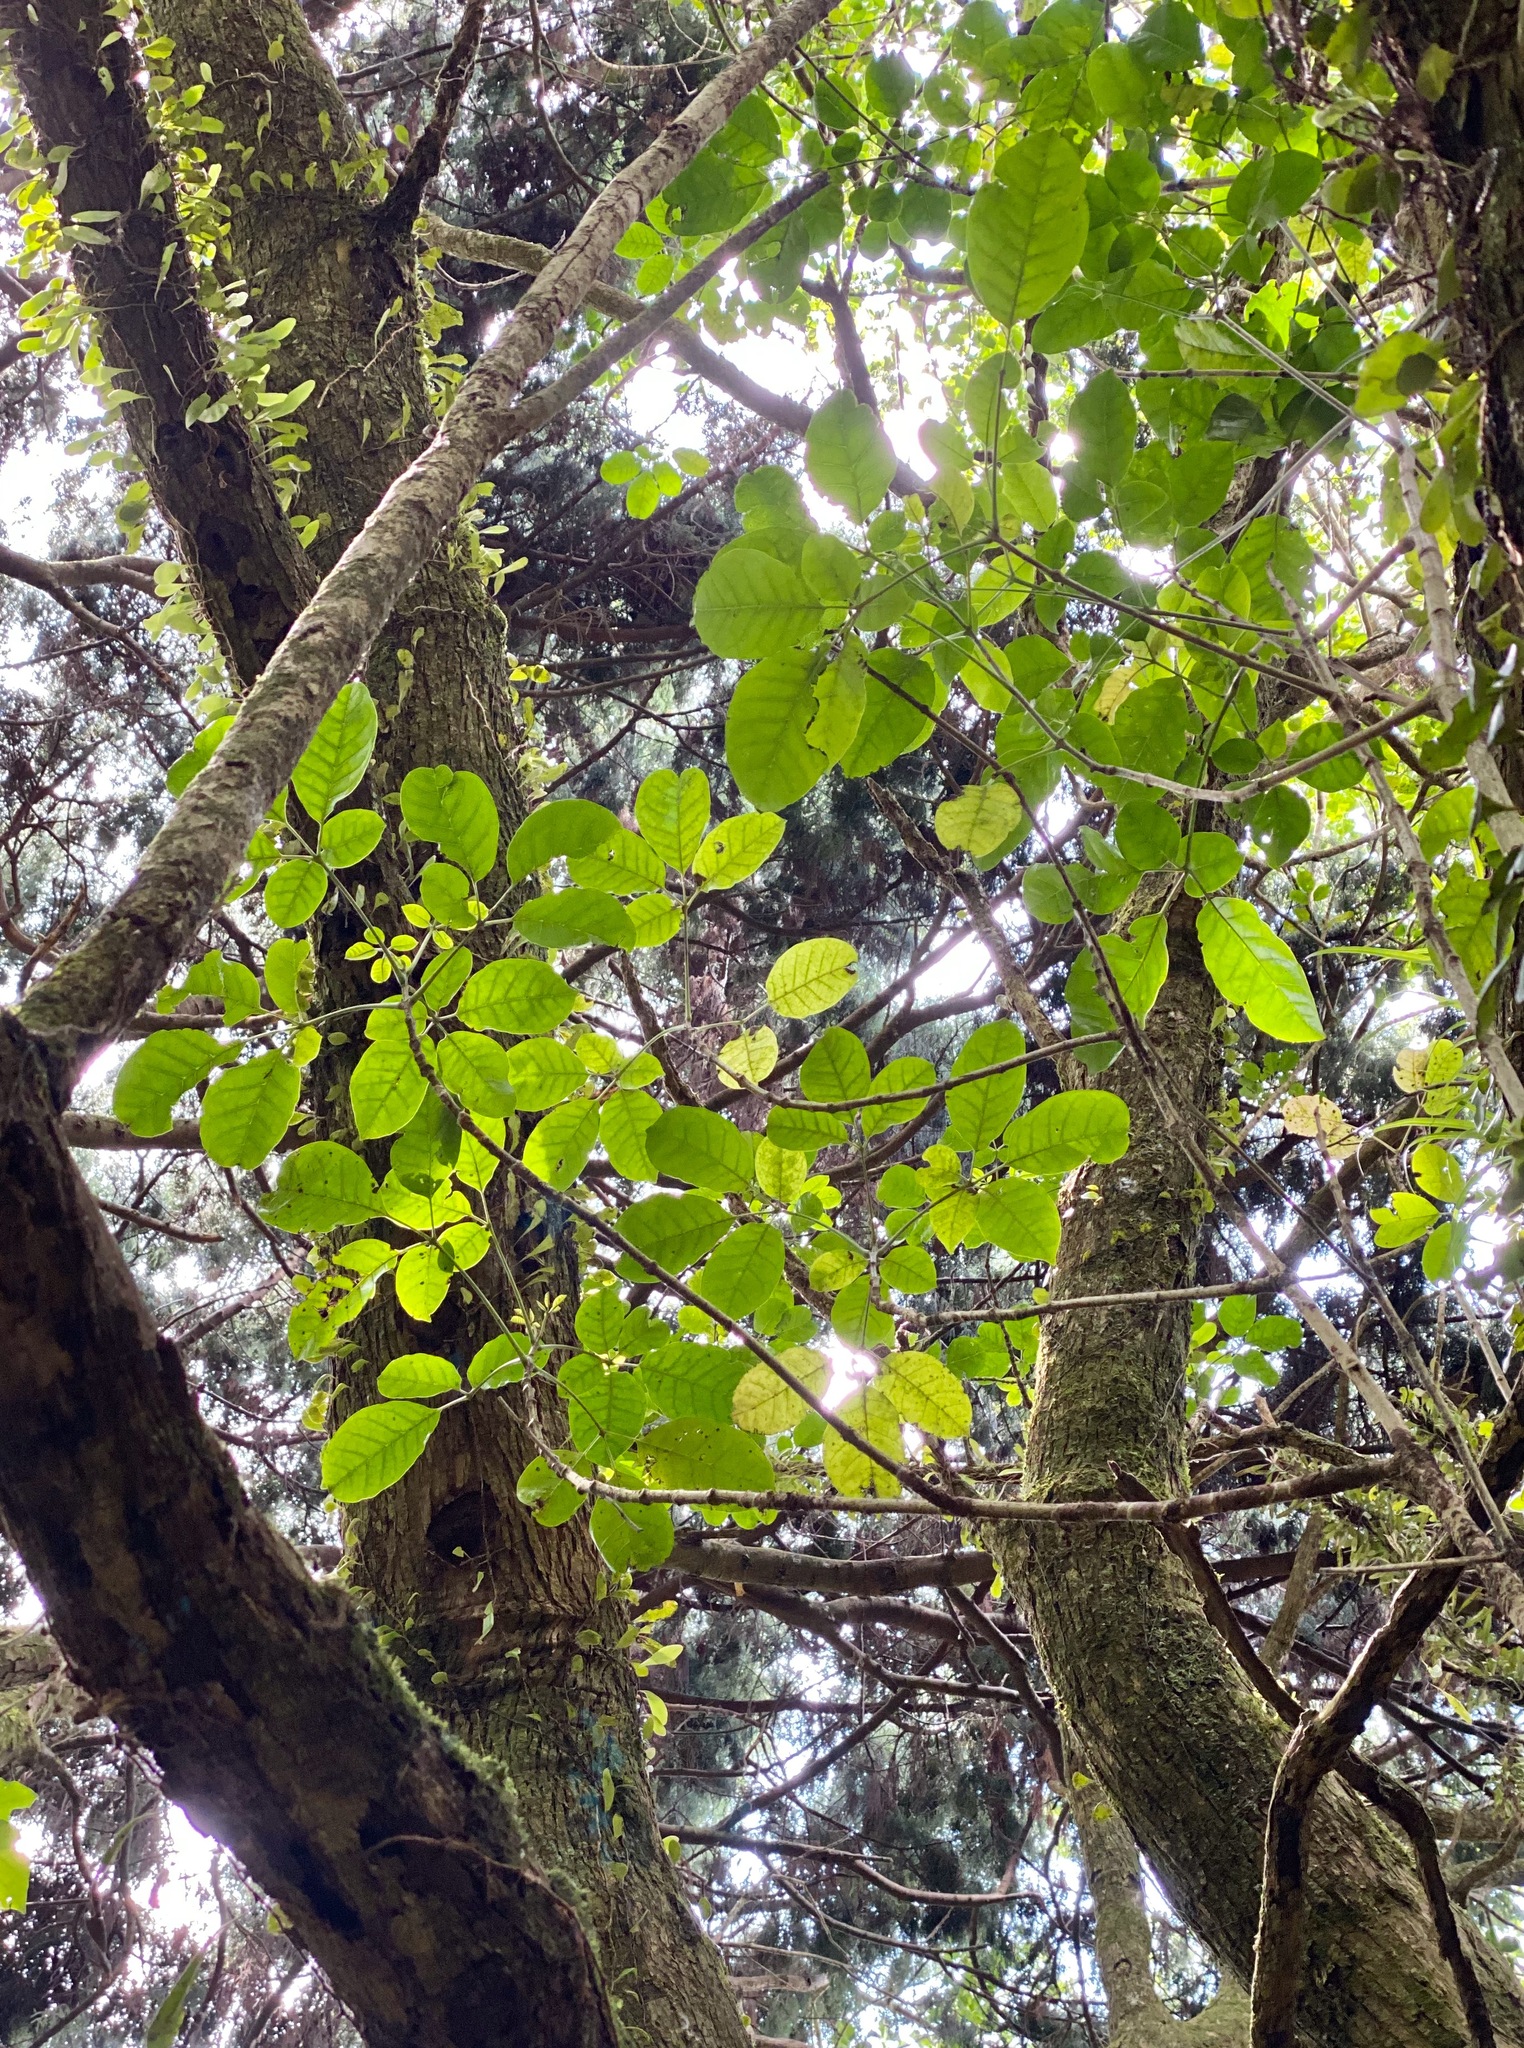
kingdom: Plantae
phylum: Tracheophyta
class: Magnoliopsida
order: Lamiales
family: Lamiaceae
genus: Vitex
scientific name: Vitex lucens
